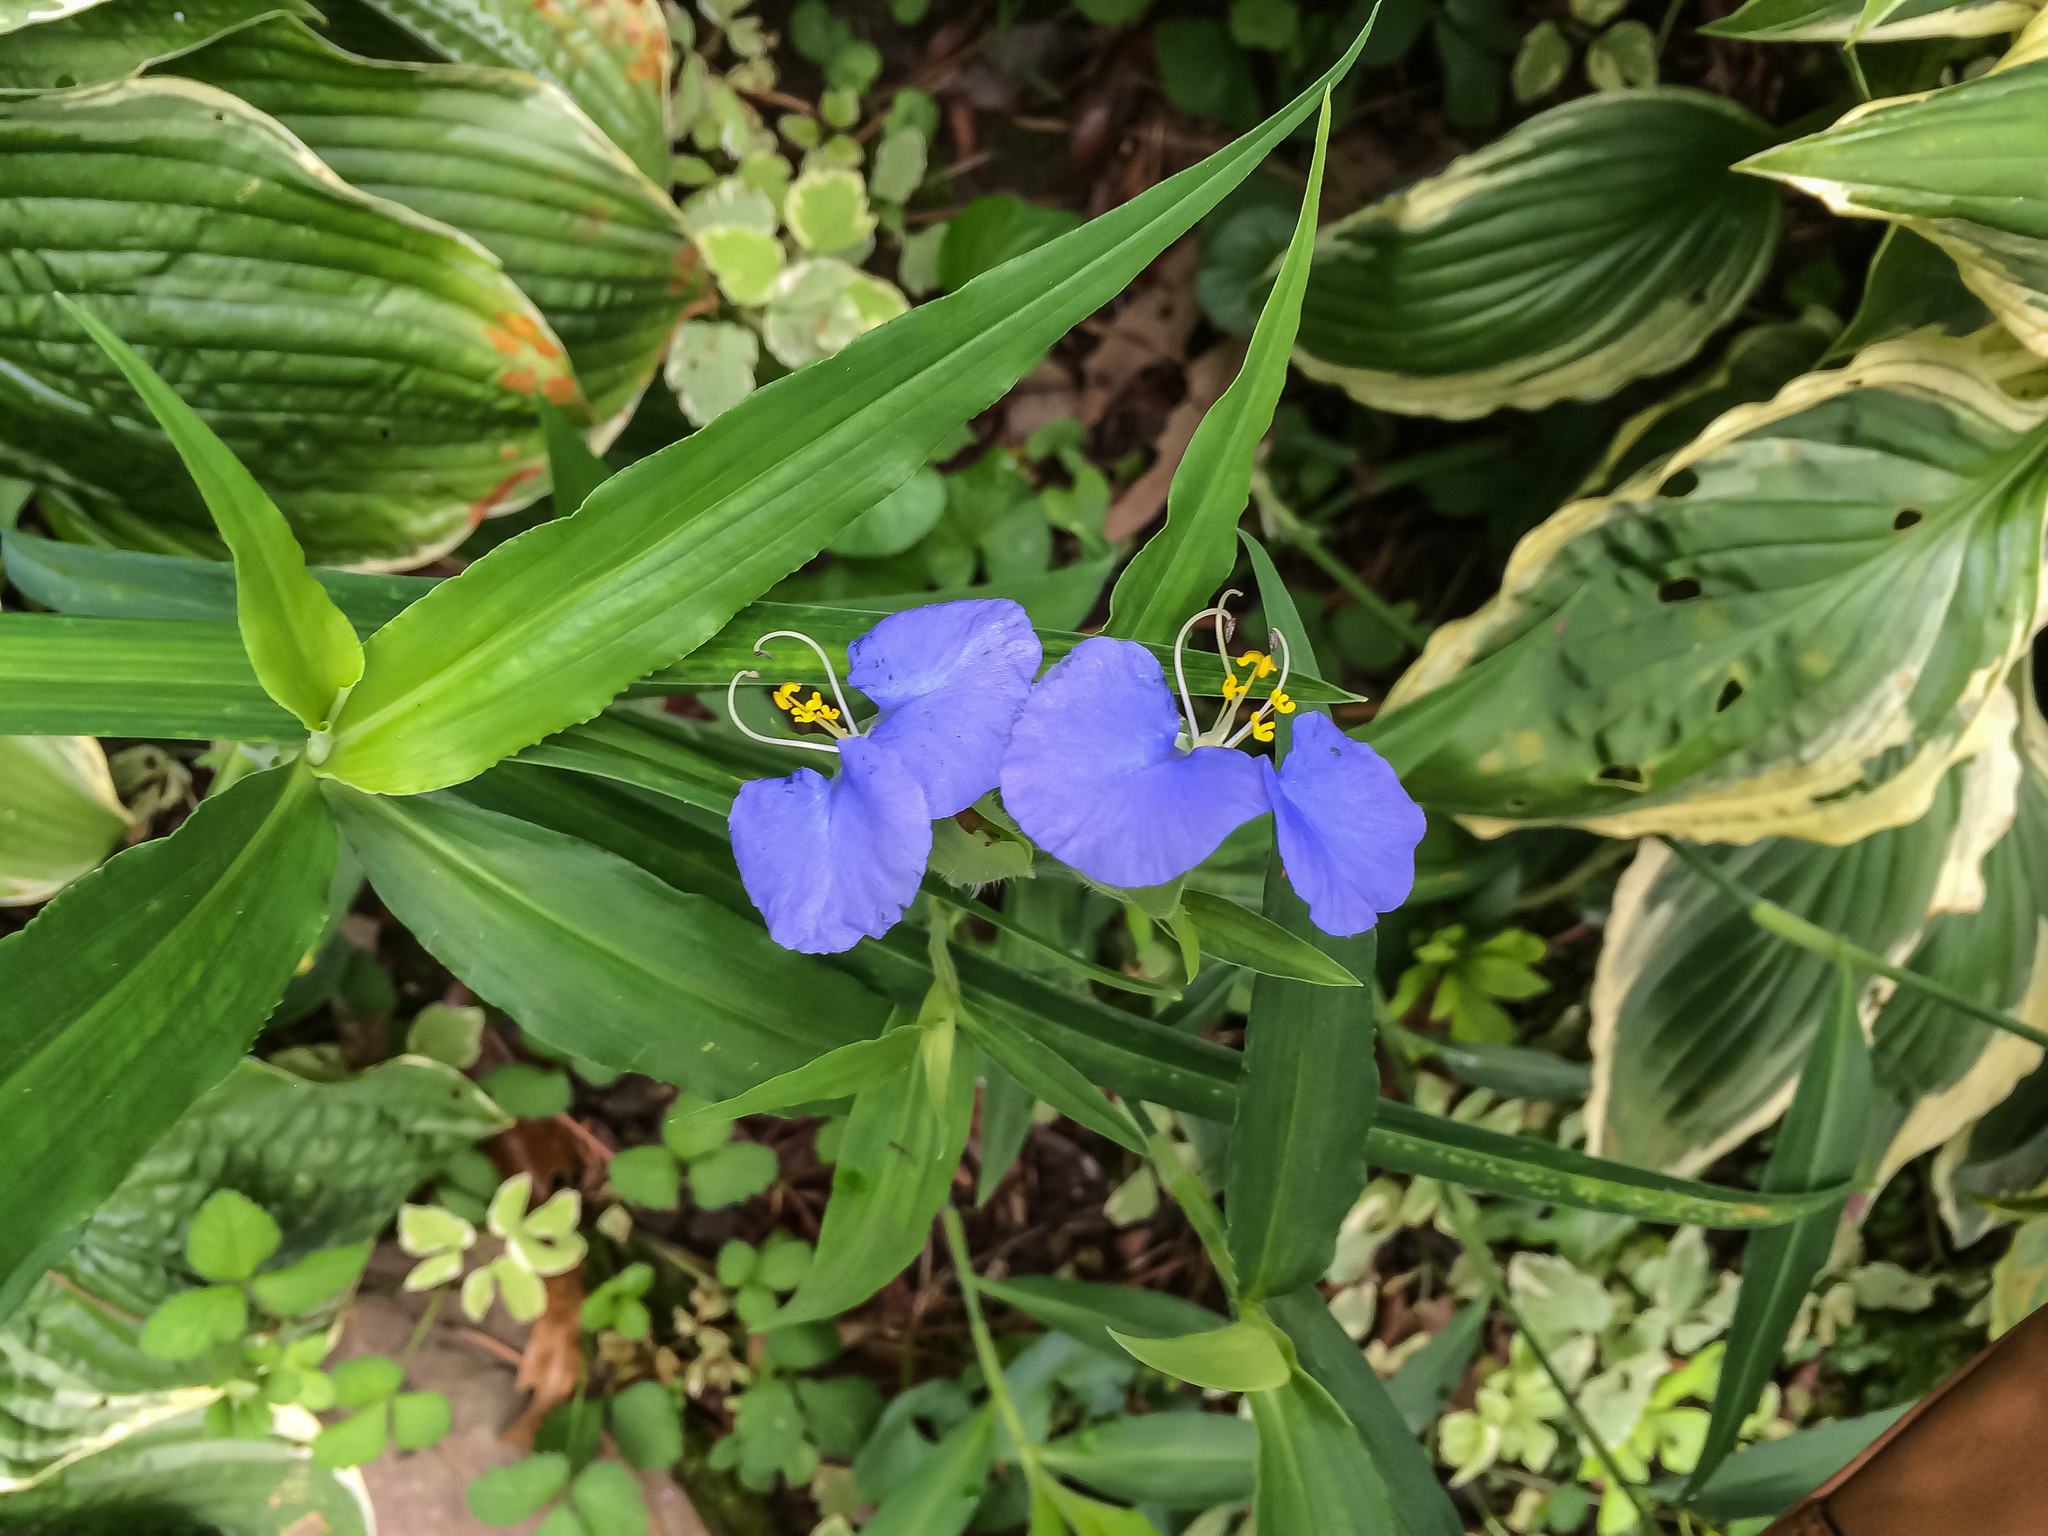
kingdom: Plantae
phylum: Tracheophyta
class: Liliopsida
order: Commelinales
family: Commelinaceae
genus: Commelina
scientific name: Commelina erecta
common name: Blousel blommetjie
